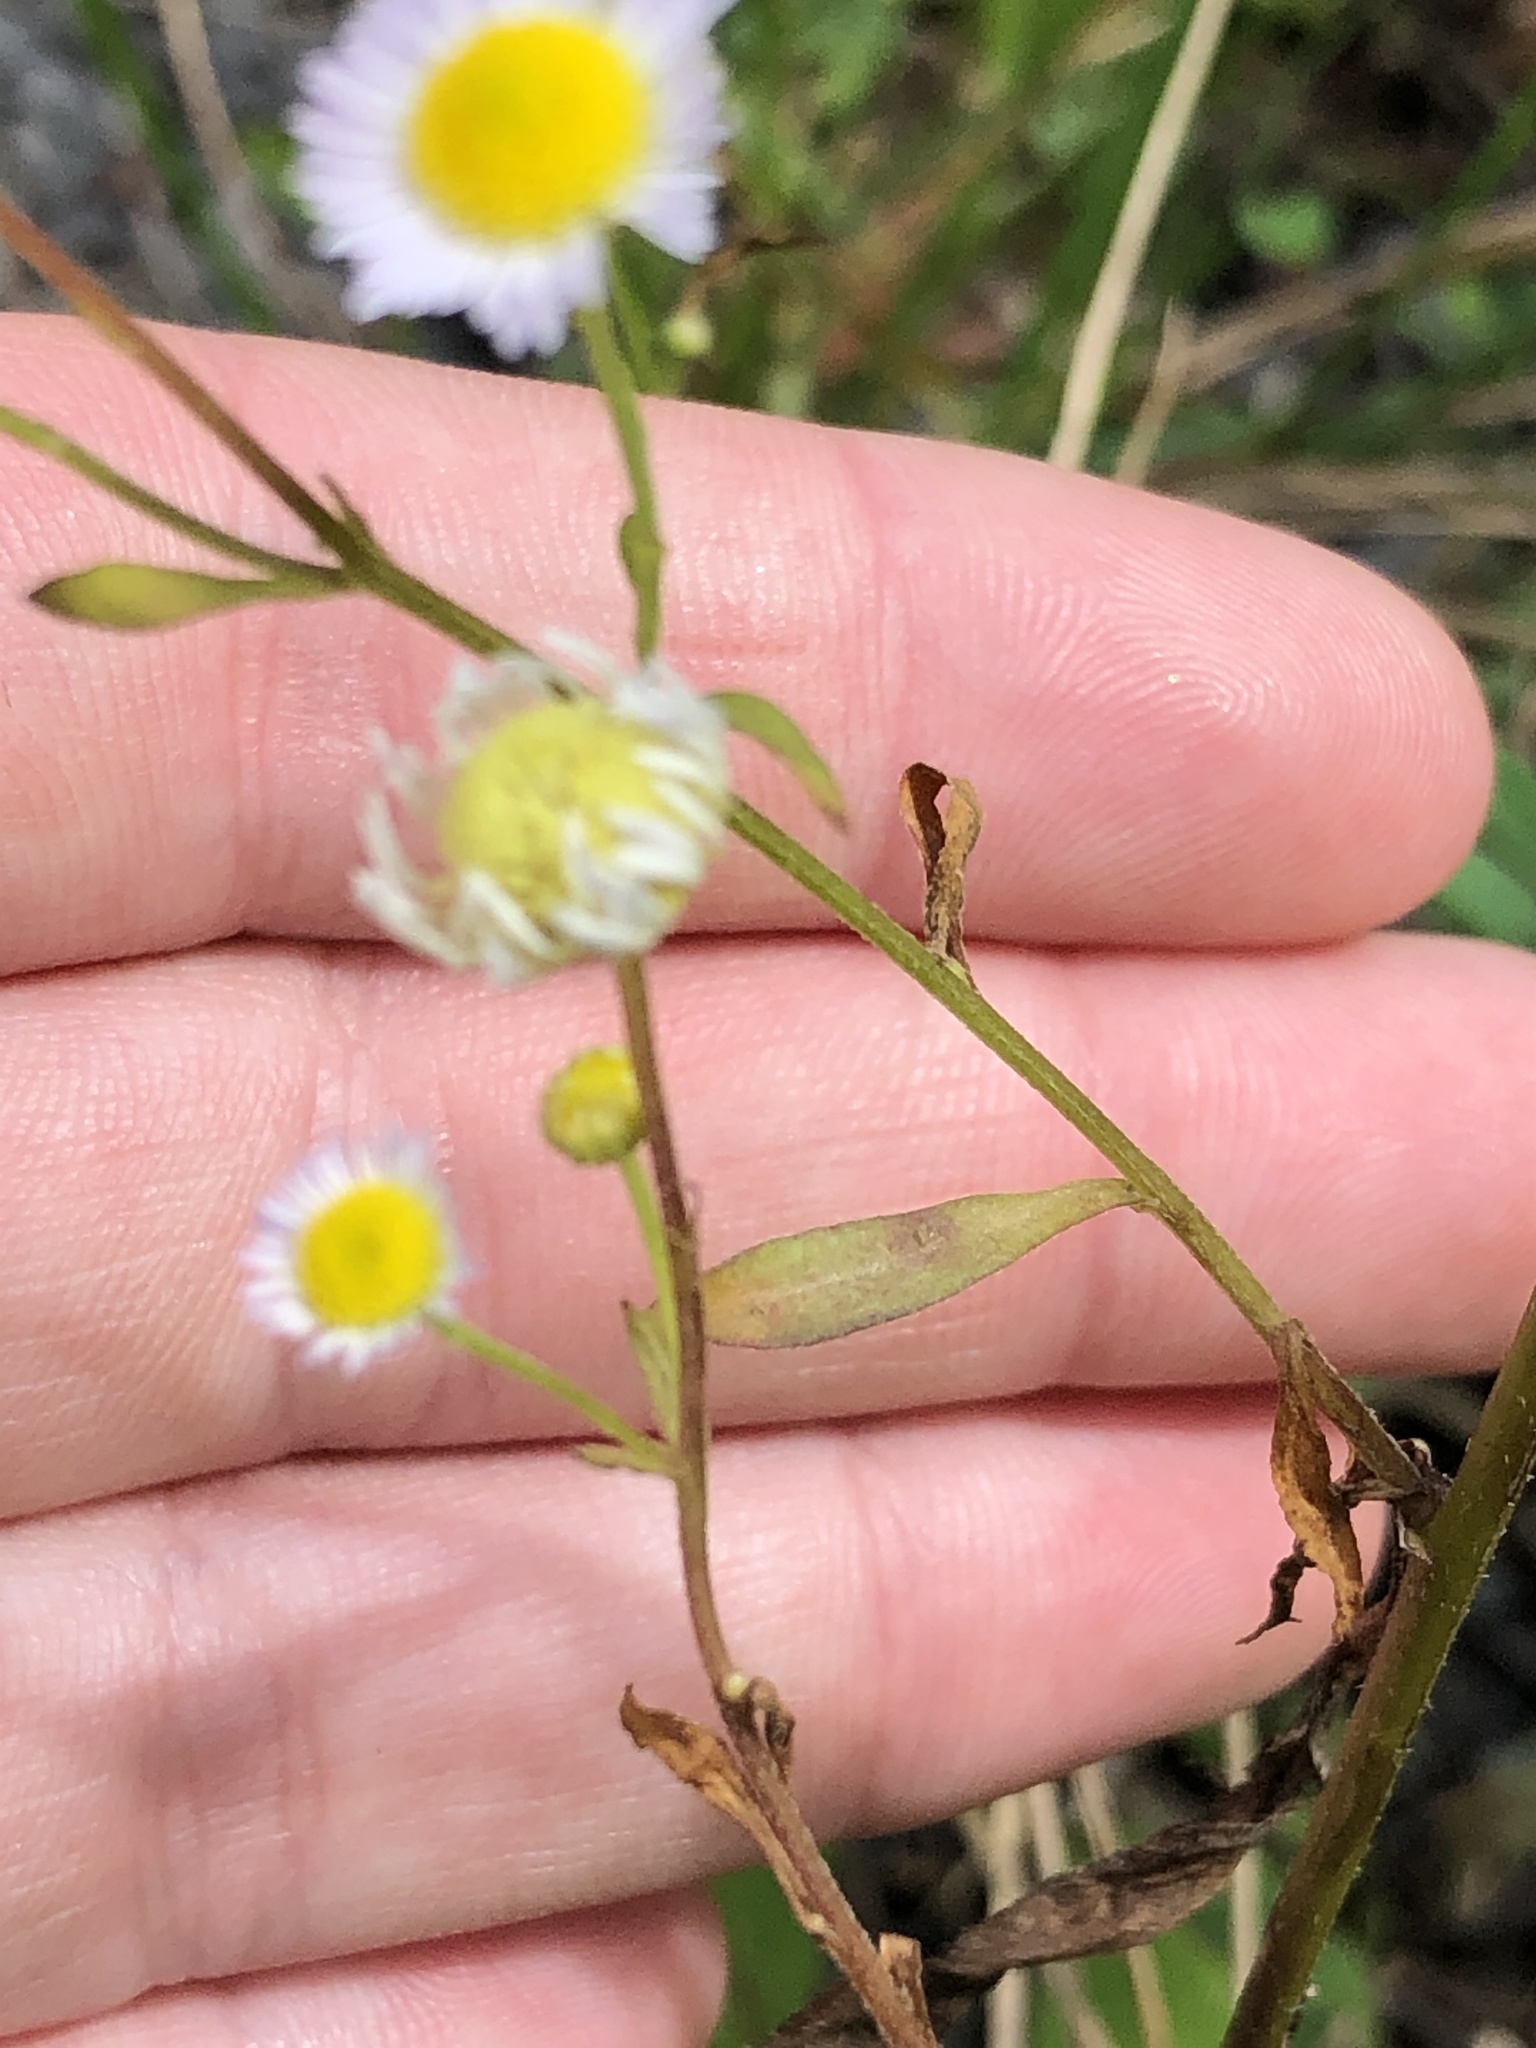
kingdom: Plantae
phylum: Tracheophyta
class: Magnoliopsida
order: Asterales
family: Asteraceae
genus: Erigeron
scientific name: Erigeron strigosus
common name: Common eastern fleabane
